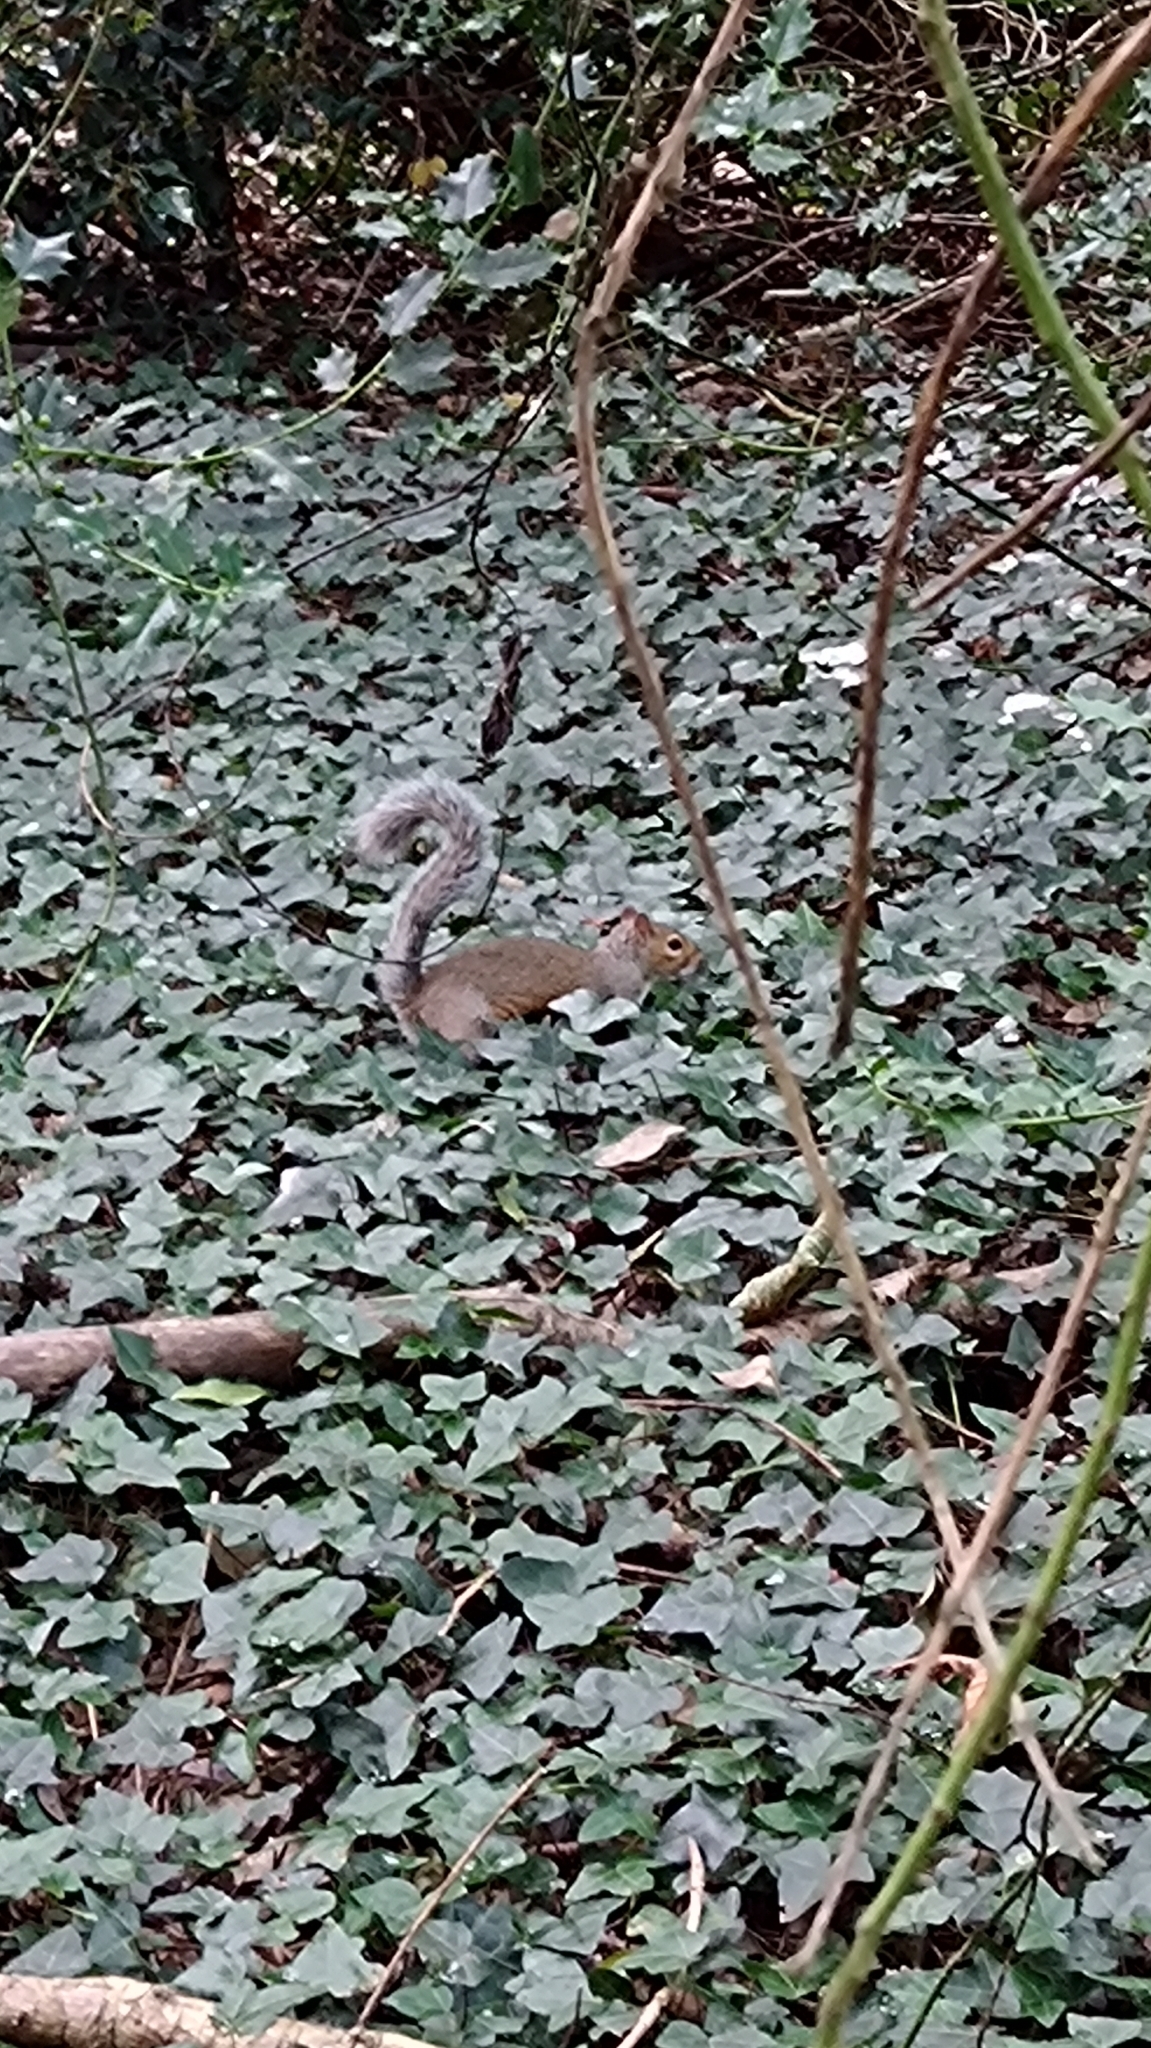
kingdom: Animalia
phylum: Chordata
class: Mammalia
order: Rodentia
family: Sciuridae
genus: Sciurus
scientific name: Sciurus carolinensis
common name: Eastern gray squirrel
